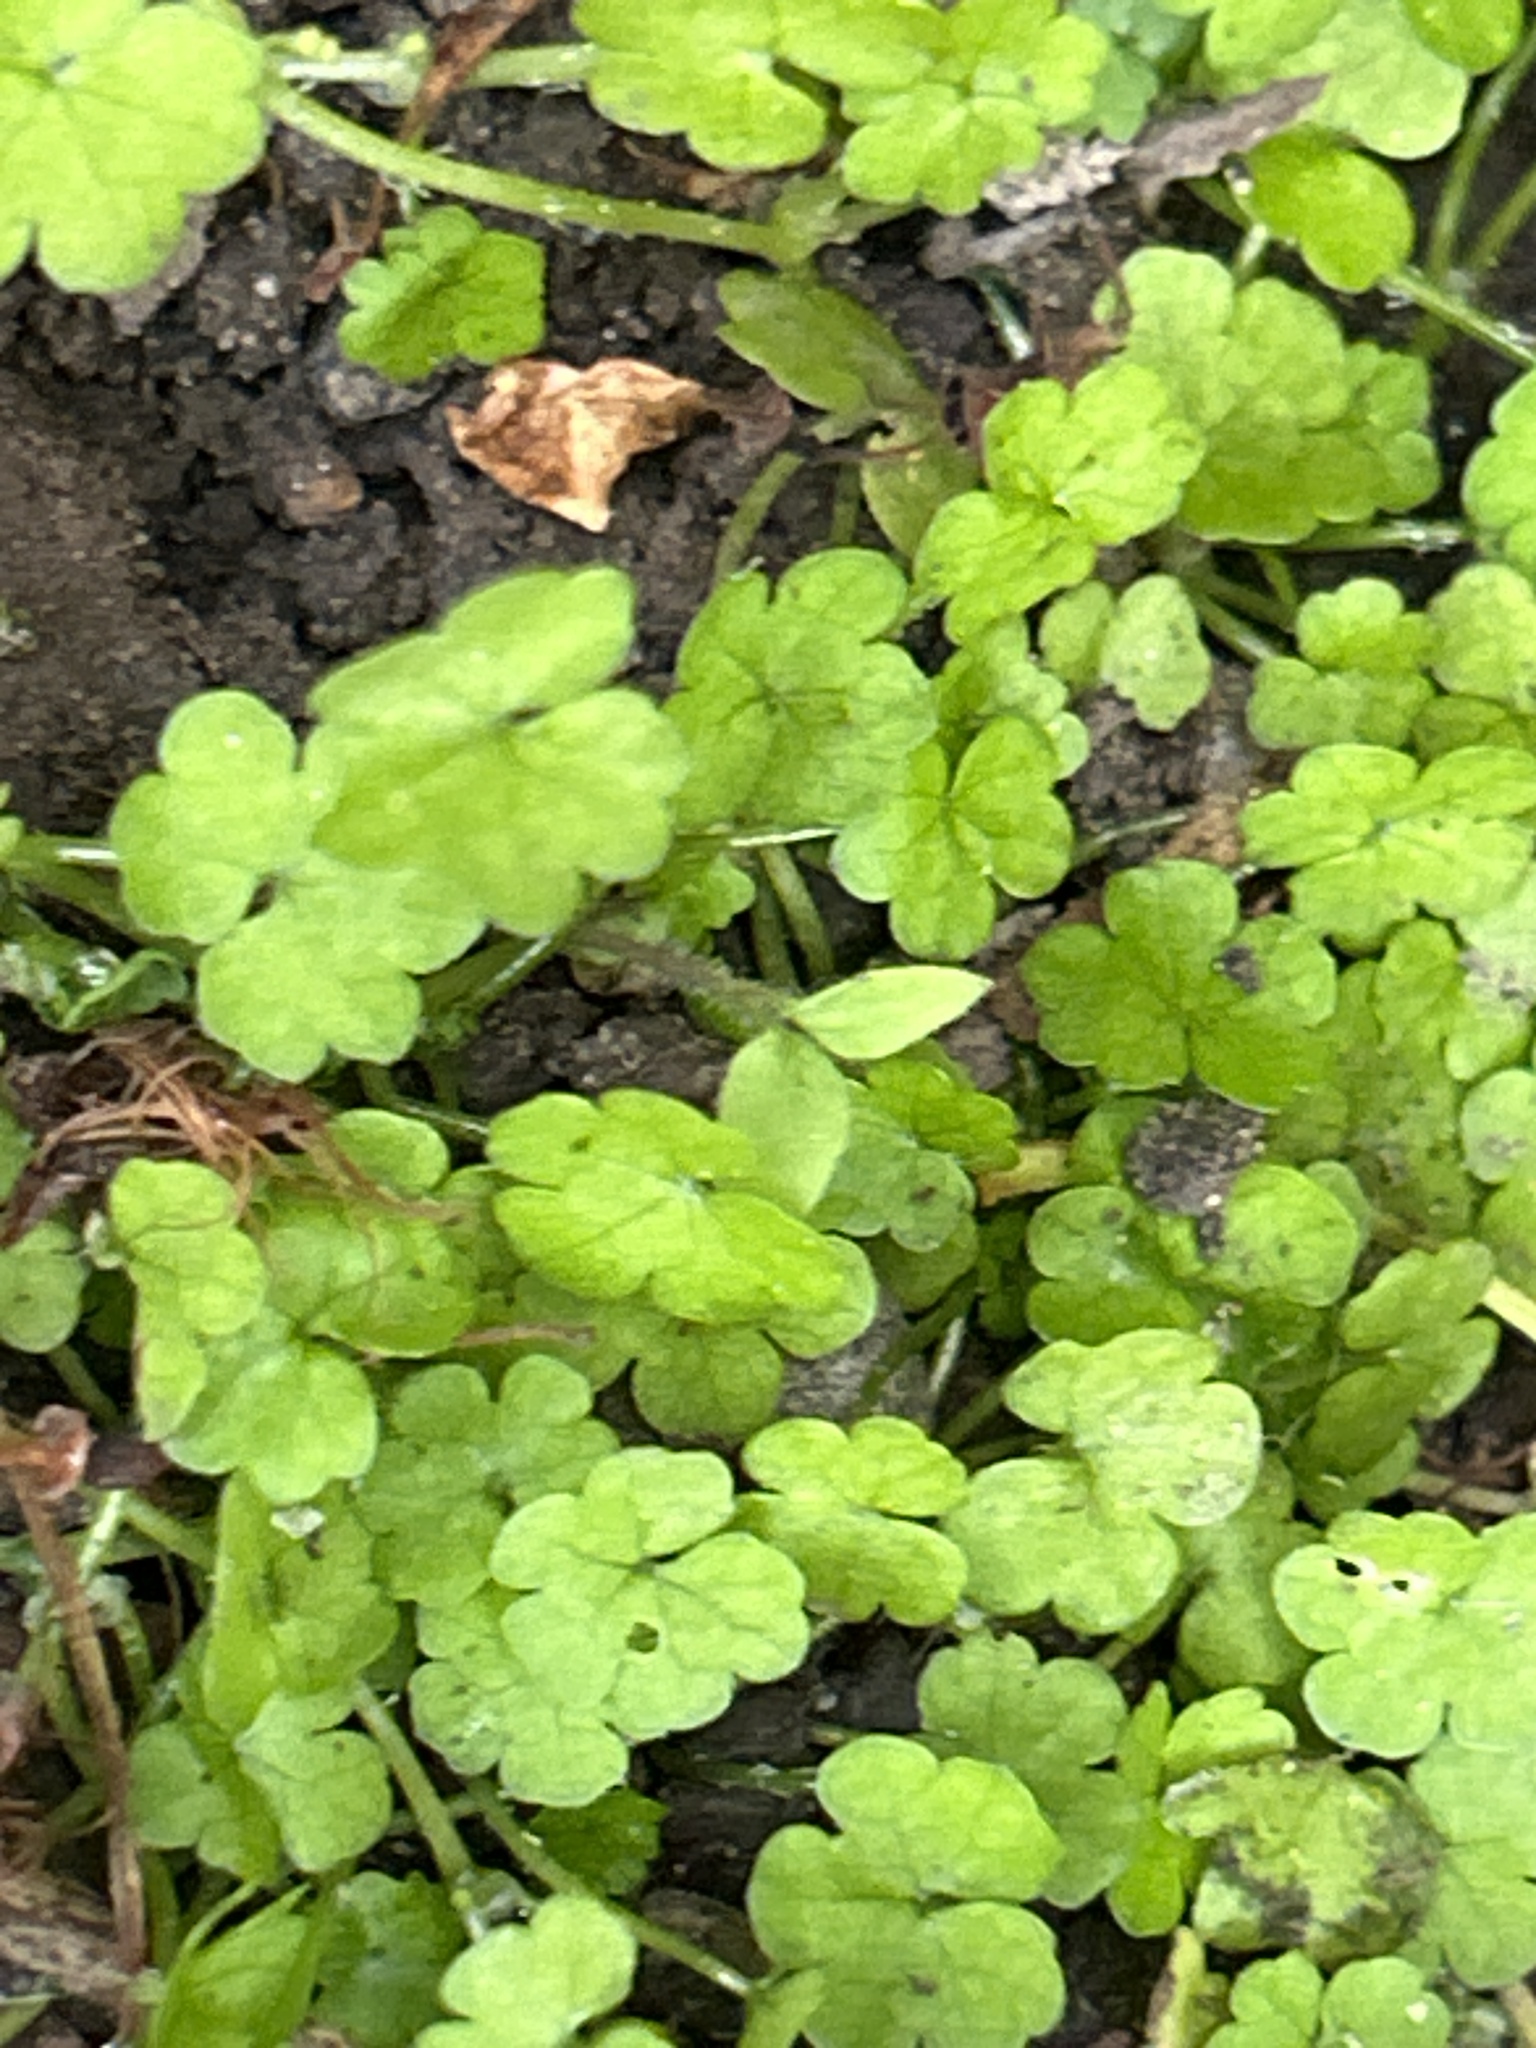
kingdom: Plantae
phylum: Tracheophyta
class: Magnoliopsida
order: Apiales
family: Araliaceae
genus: Hydrocotyle
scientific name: Hydrocotyle heteromeria
